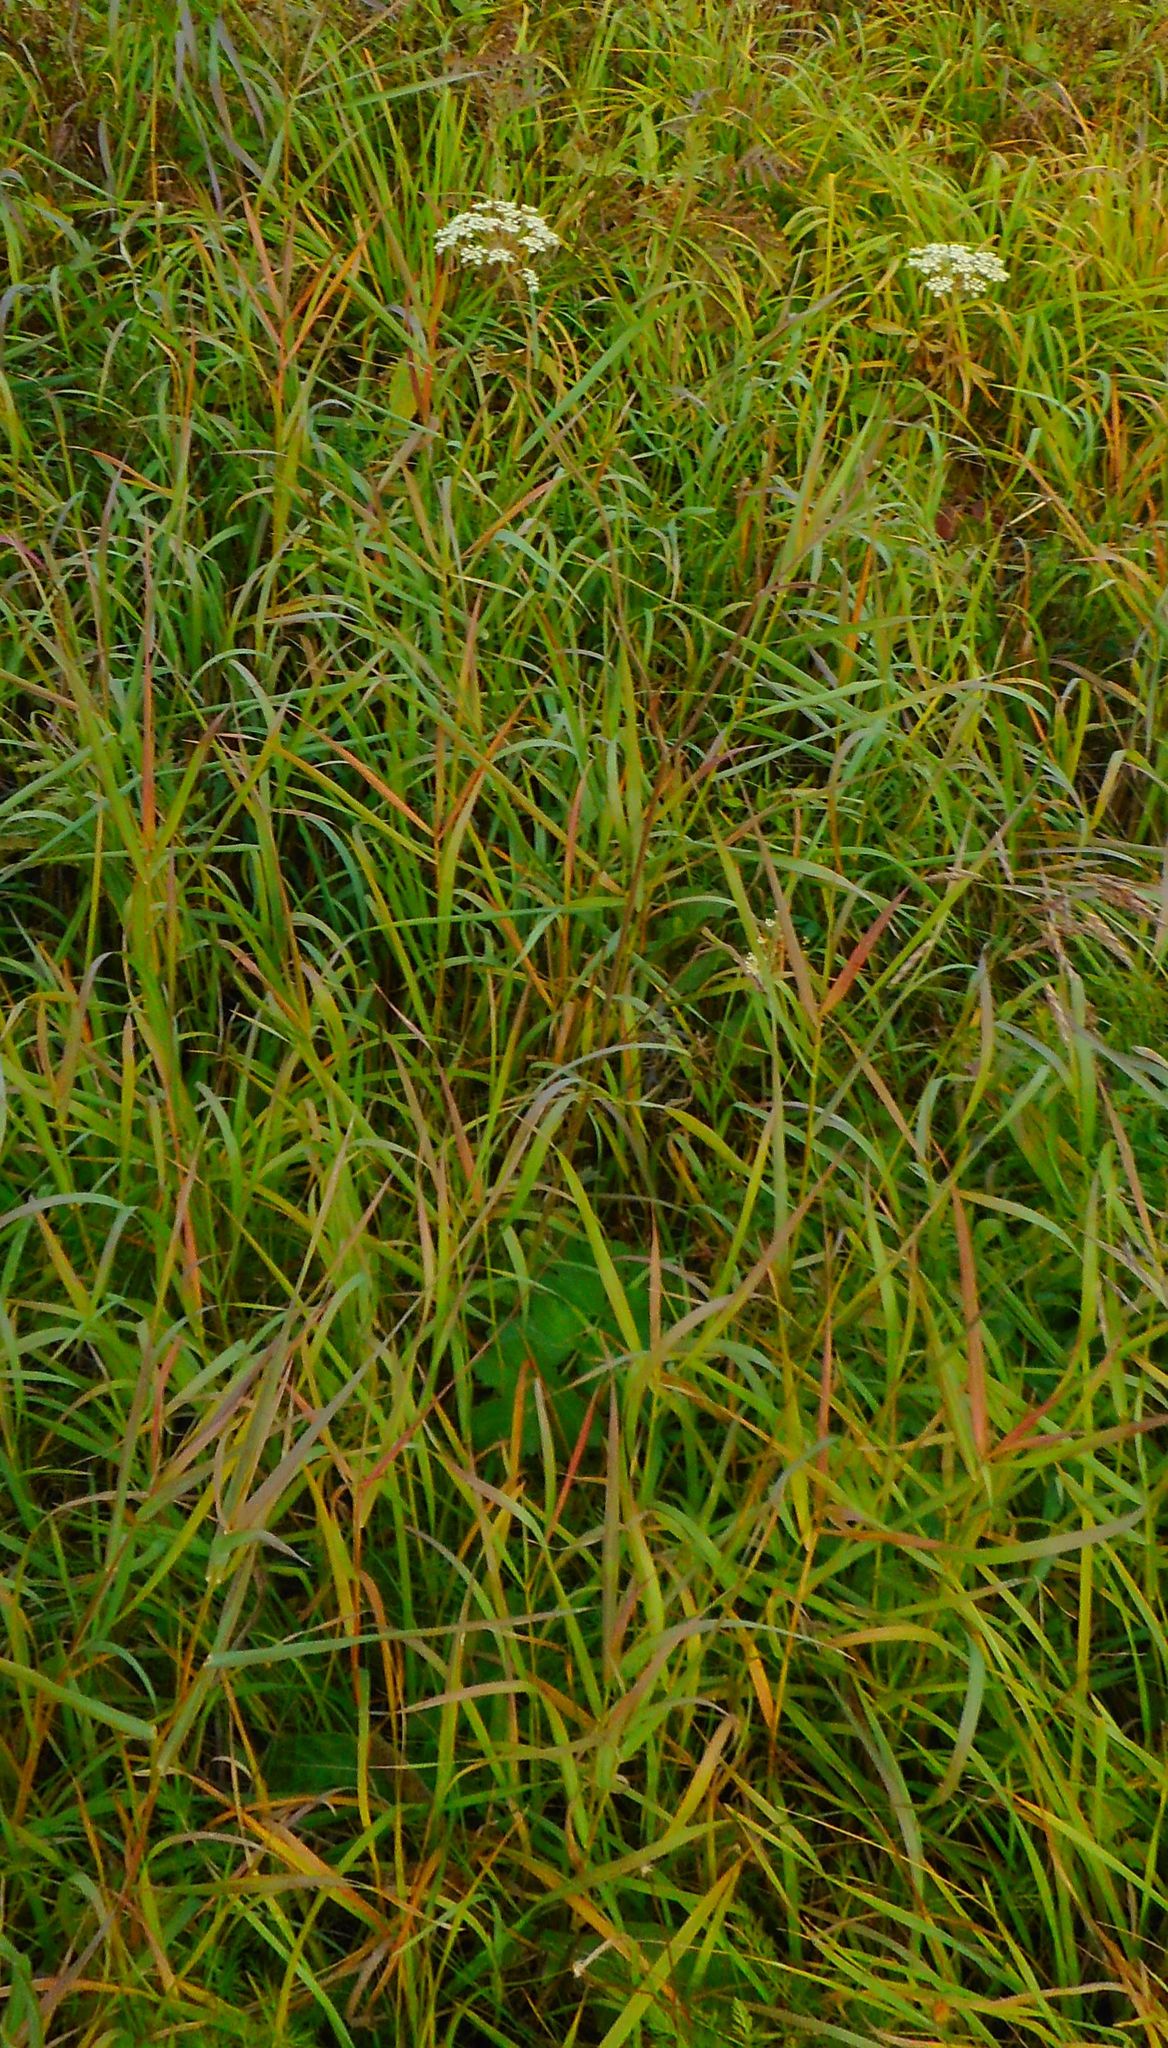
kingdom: Plantae
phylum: Tracheophyta
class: Magnoliopsida
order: Apiales
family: Apiaceae
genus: Pimpinella
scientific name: Pimpinella saxifraga
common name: Burnet-saxifrage
